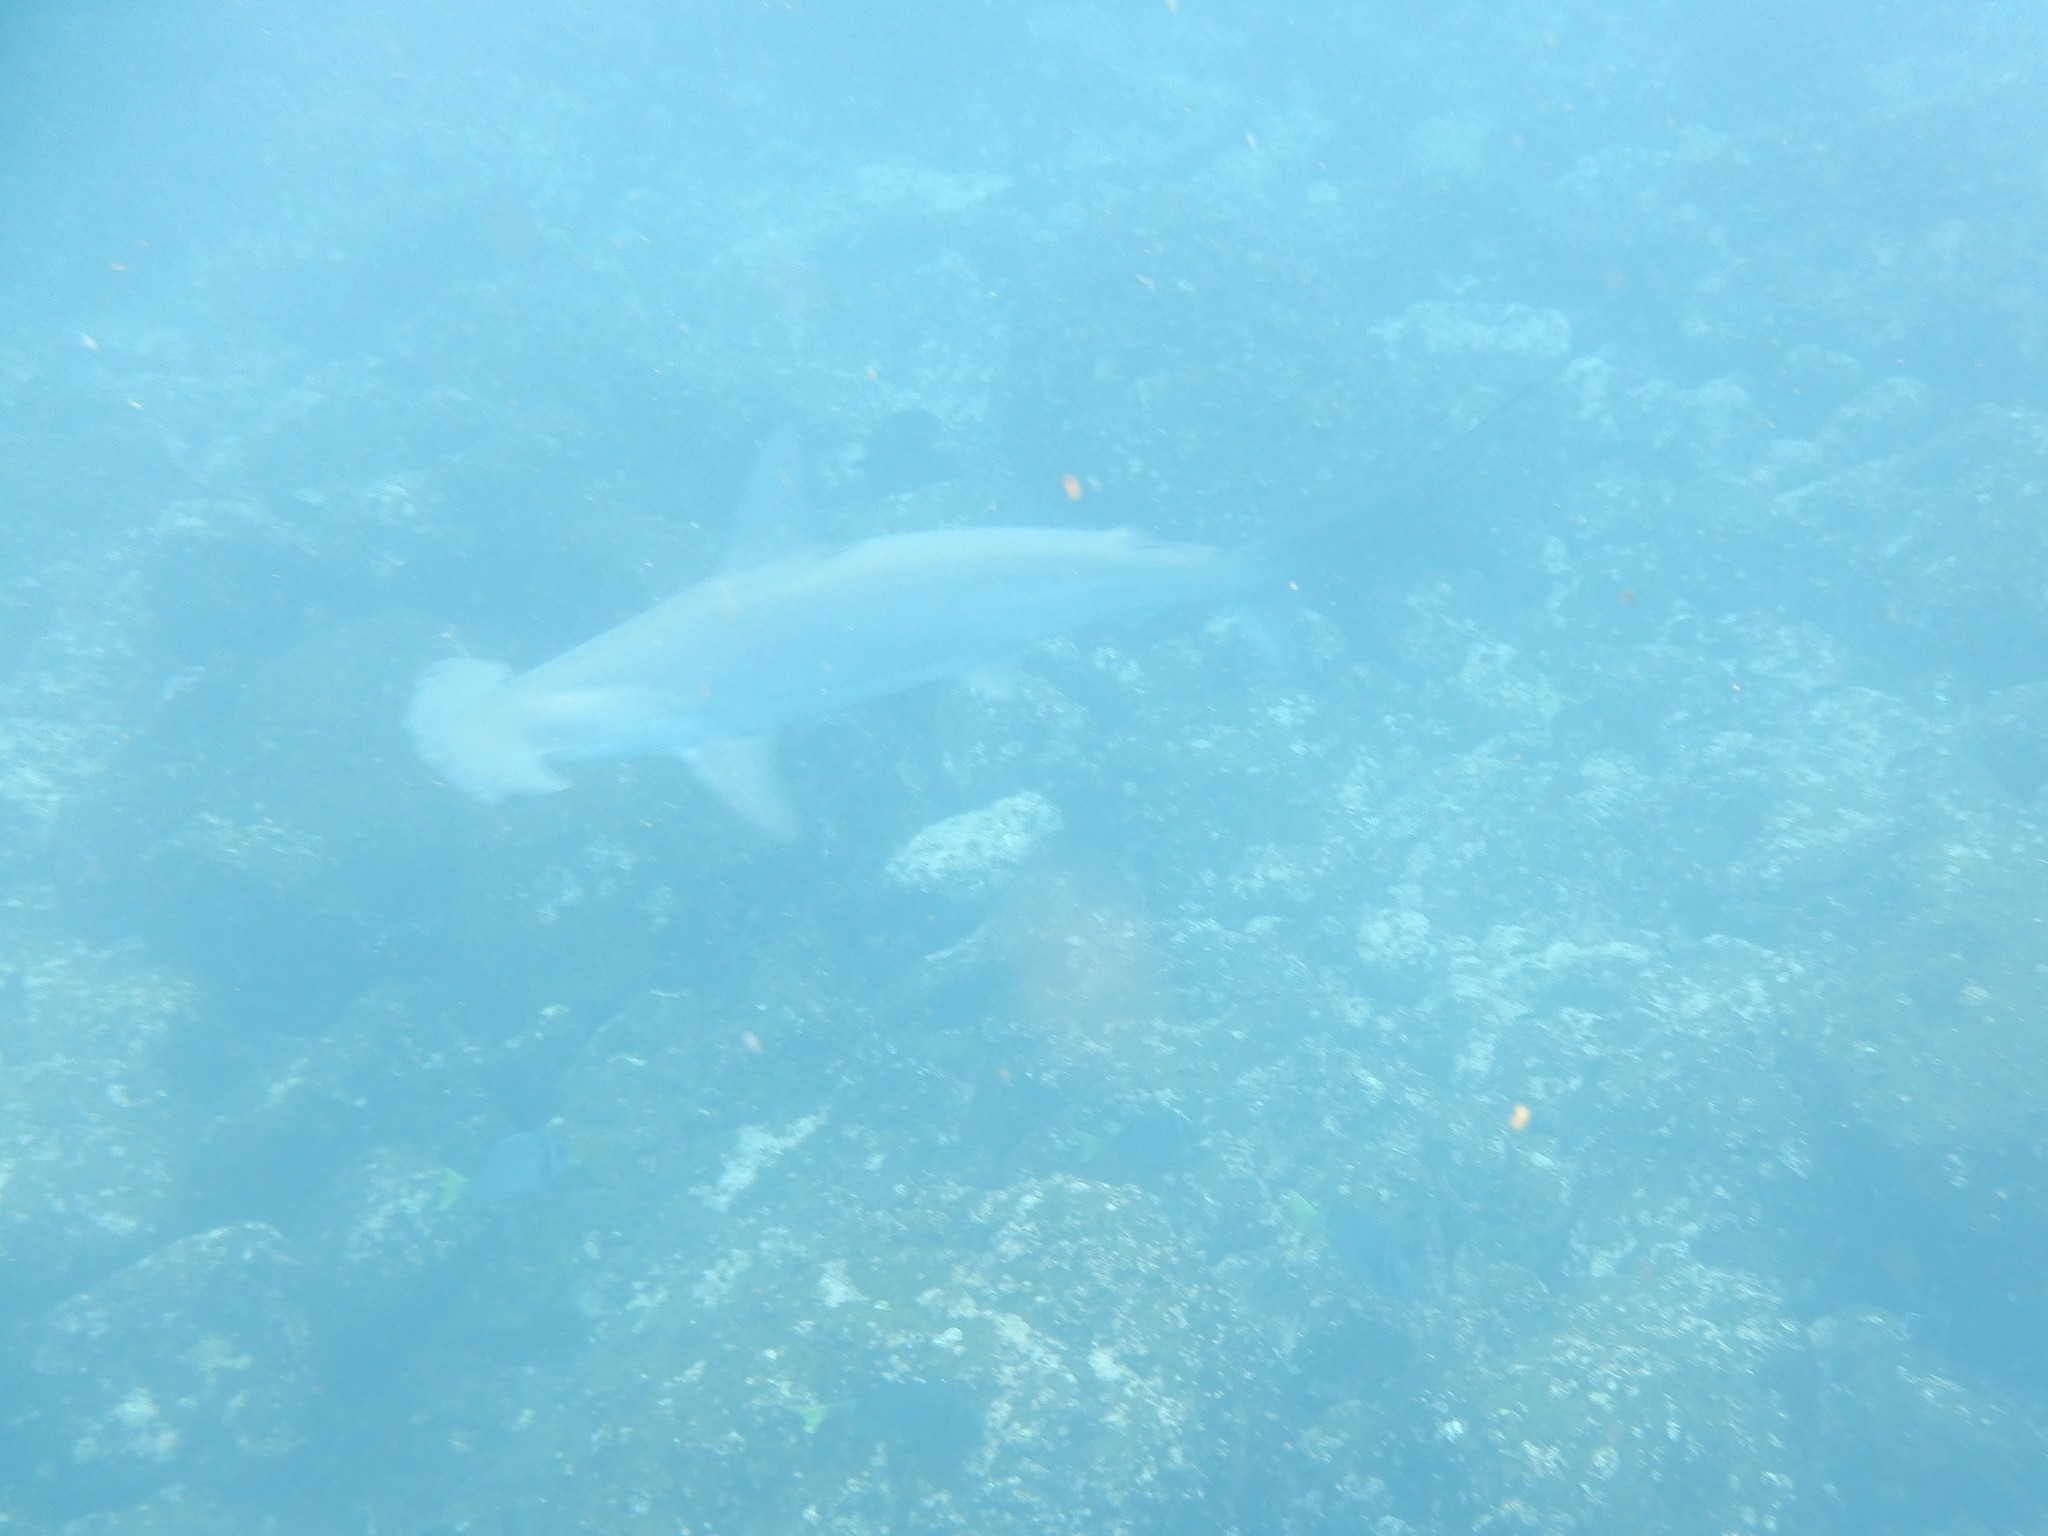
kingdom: Animalia
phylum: Chordata
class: Elasmobranchii
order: Carcharhiniformes
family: Sphyrnidae
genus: Sphyrna
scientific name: Sphyrna lewini
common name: Scalloped hammerhead
